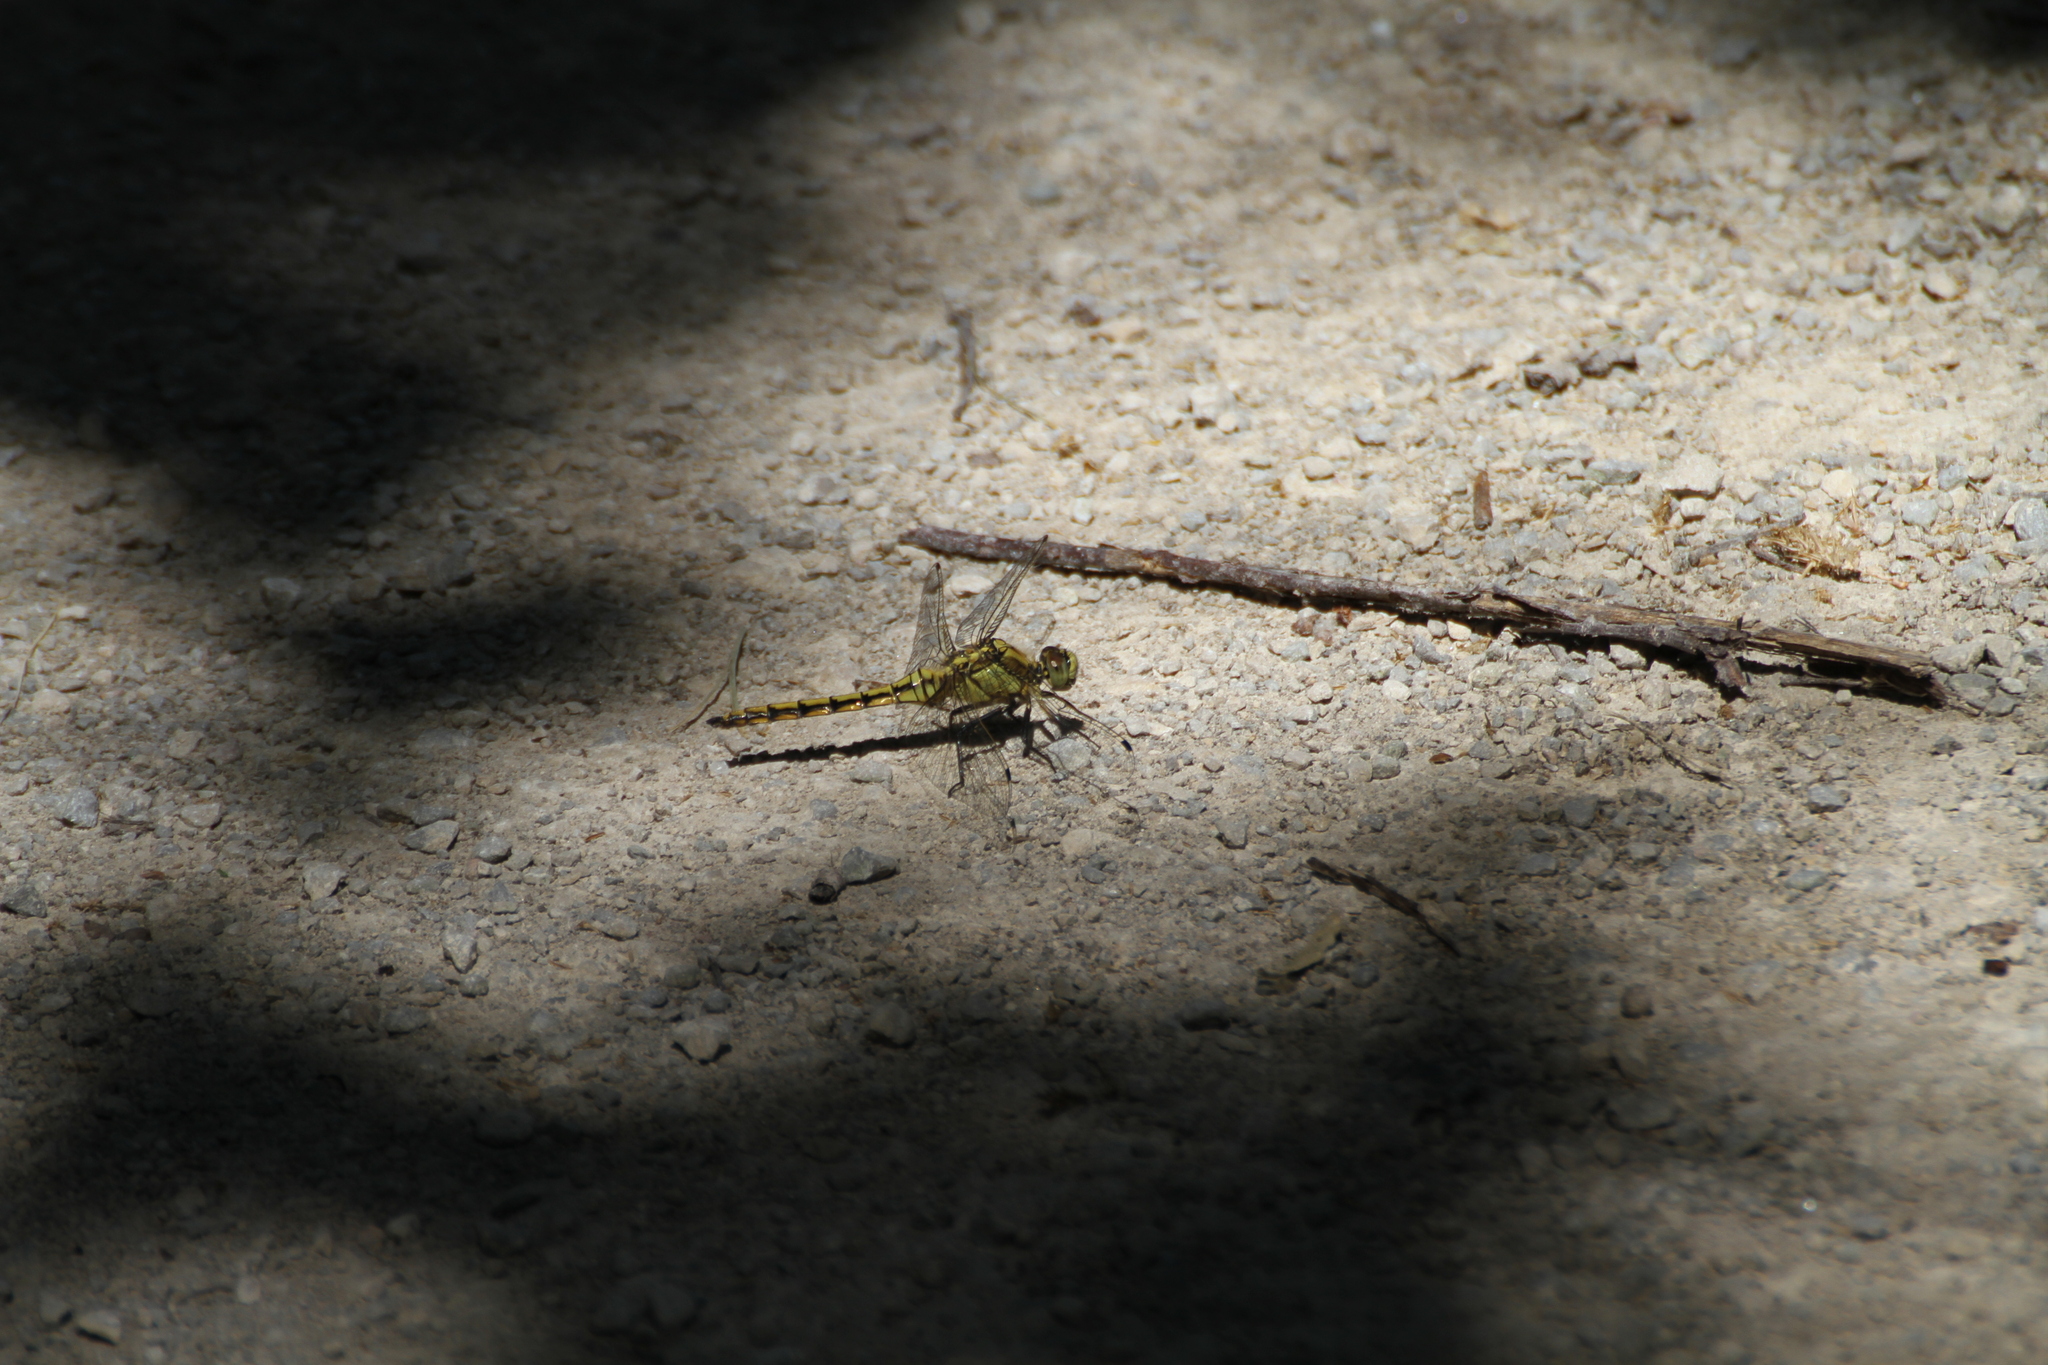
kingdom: Animalia
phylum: Arthropoda
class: Insecta
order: Odonata
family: Libellulidae
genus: Orthetrum
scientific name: Orthetrum cancellatum
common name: Black-tailed skimmer
